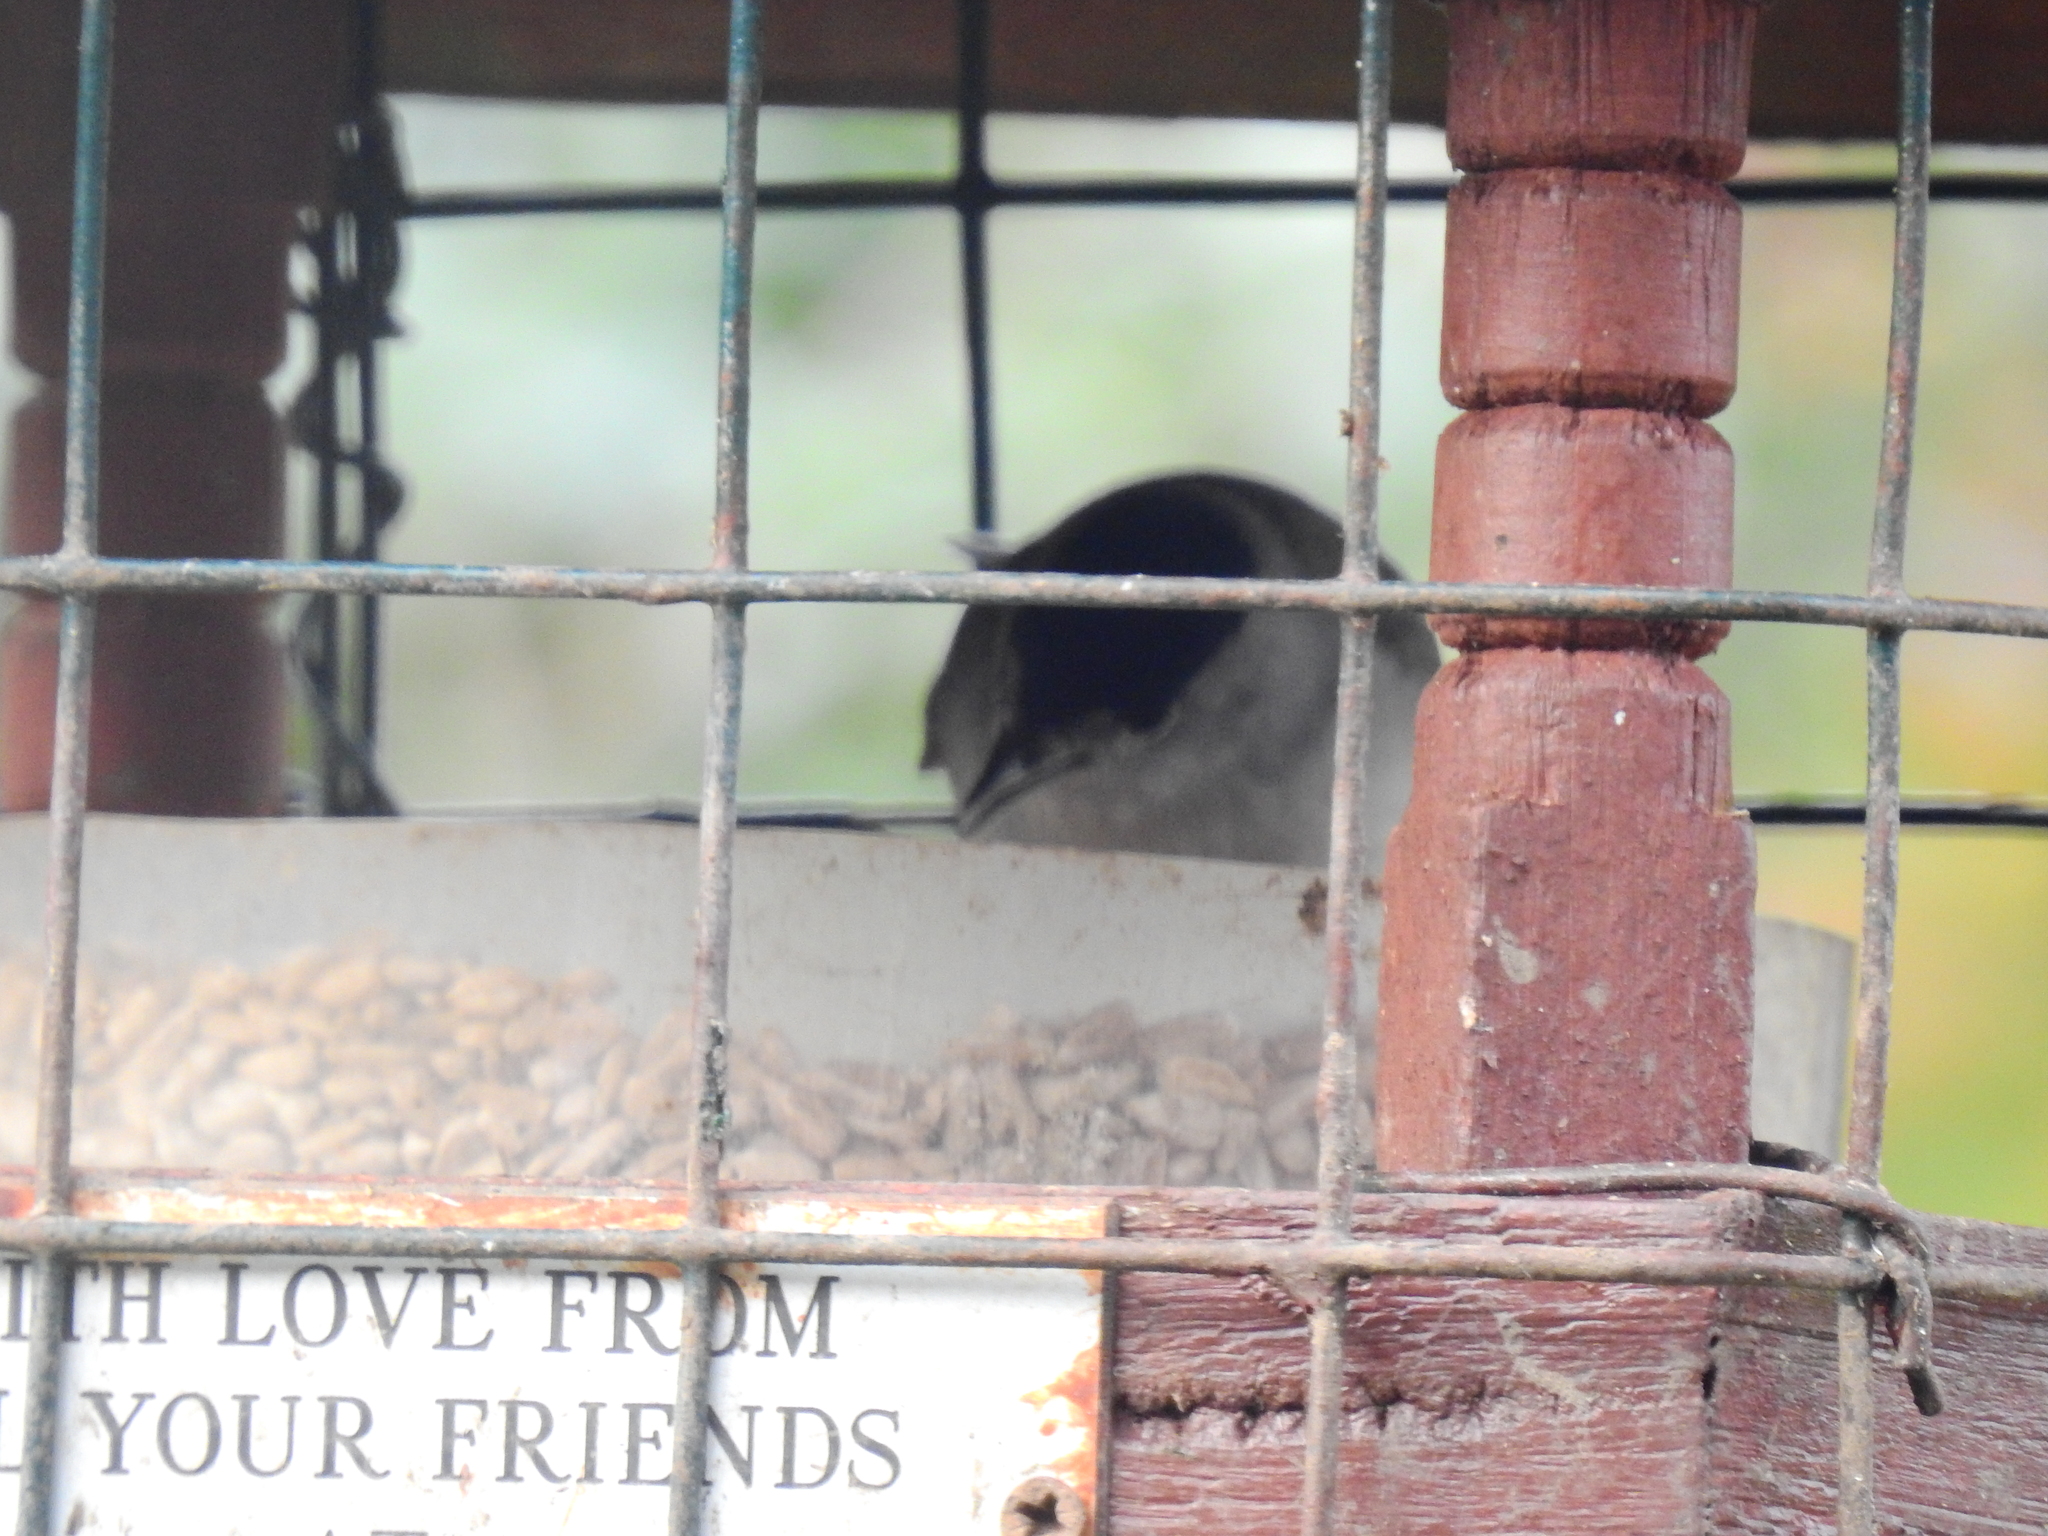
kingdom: Animalia
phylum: Chordata
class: Aves
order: Passeriformes
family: Sylviidae
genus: Sylvia
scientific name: Sylvia atricapilla
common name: Eurasian blackcap
